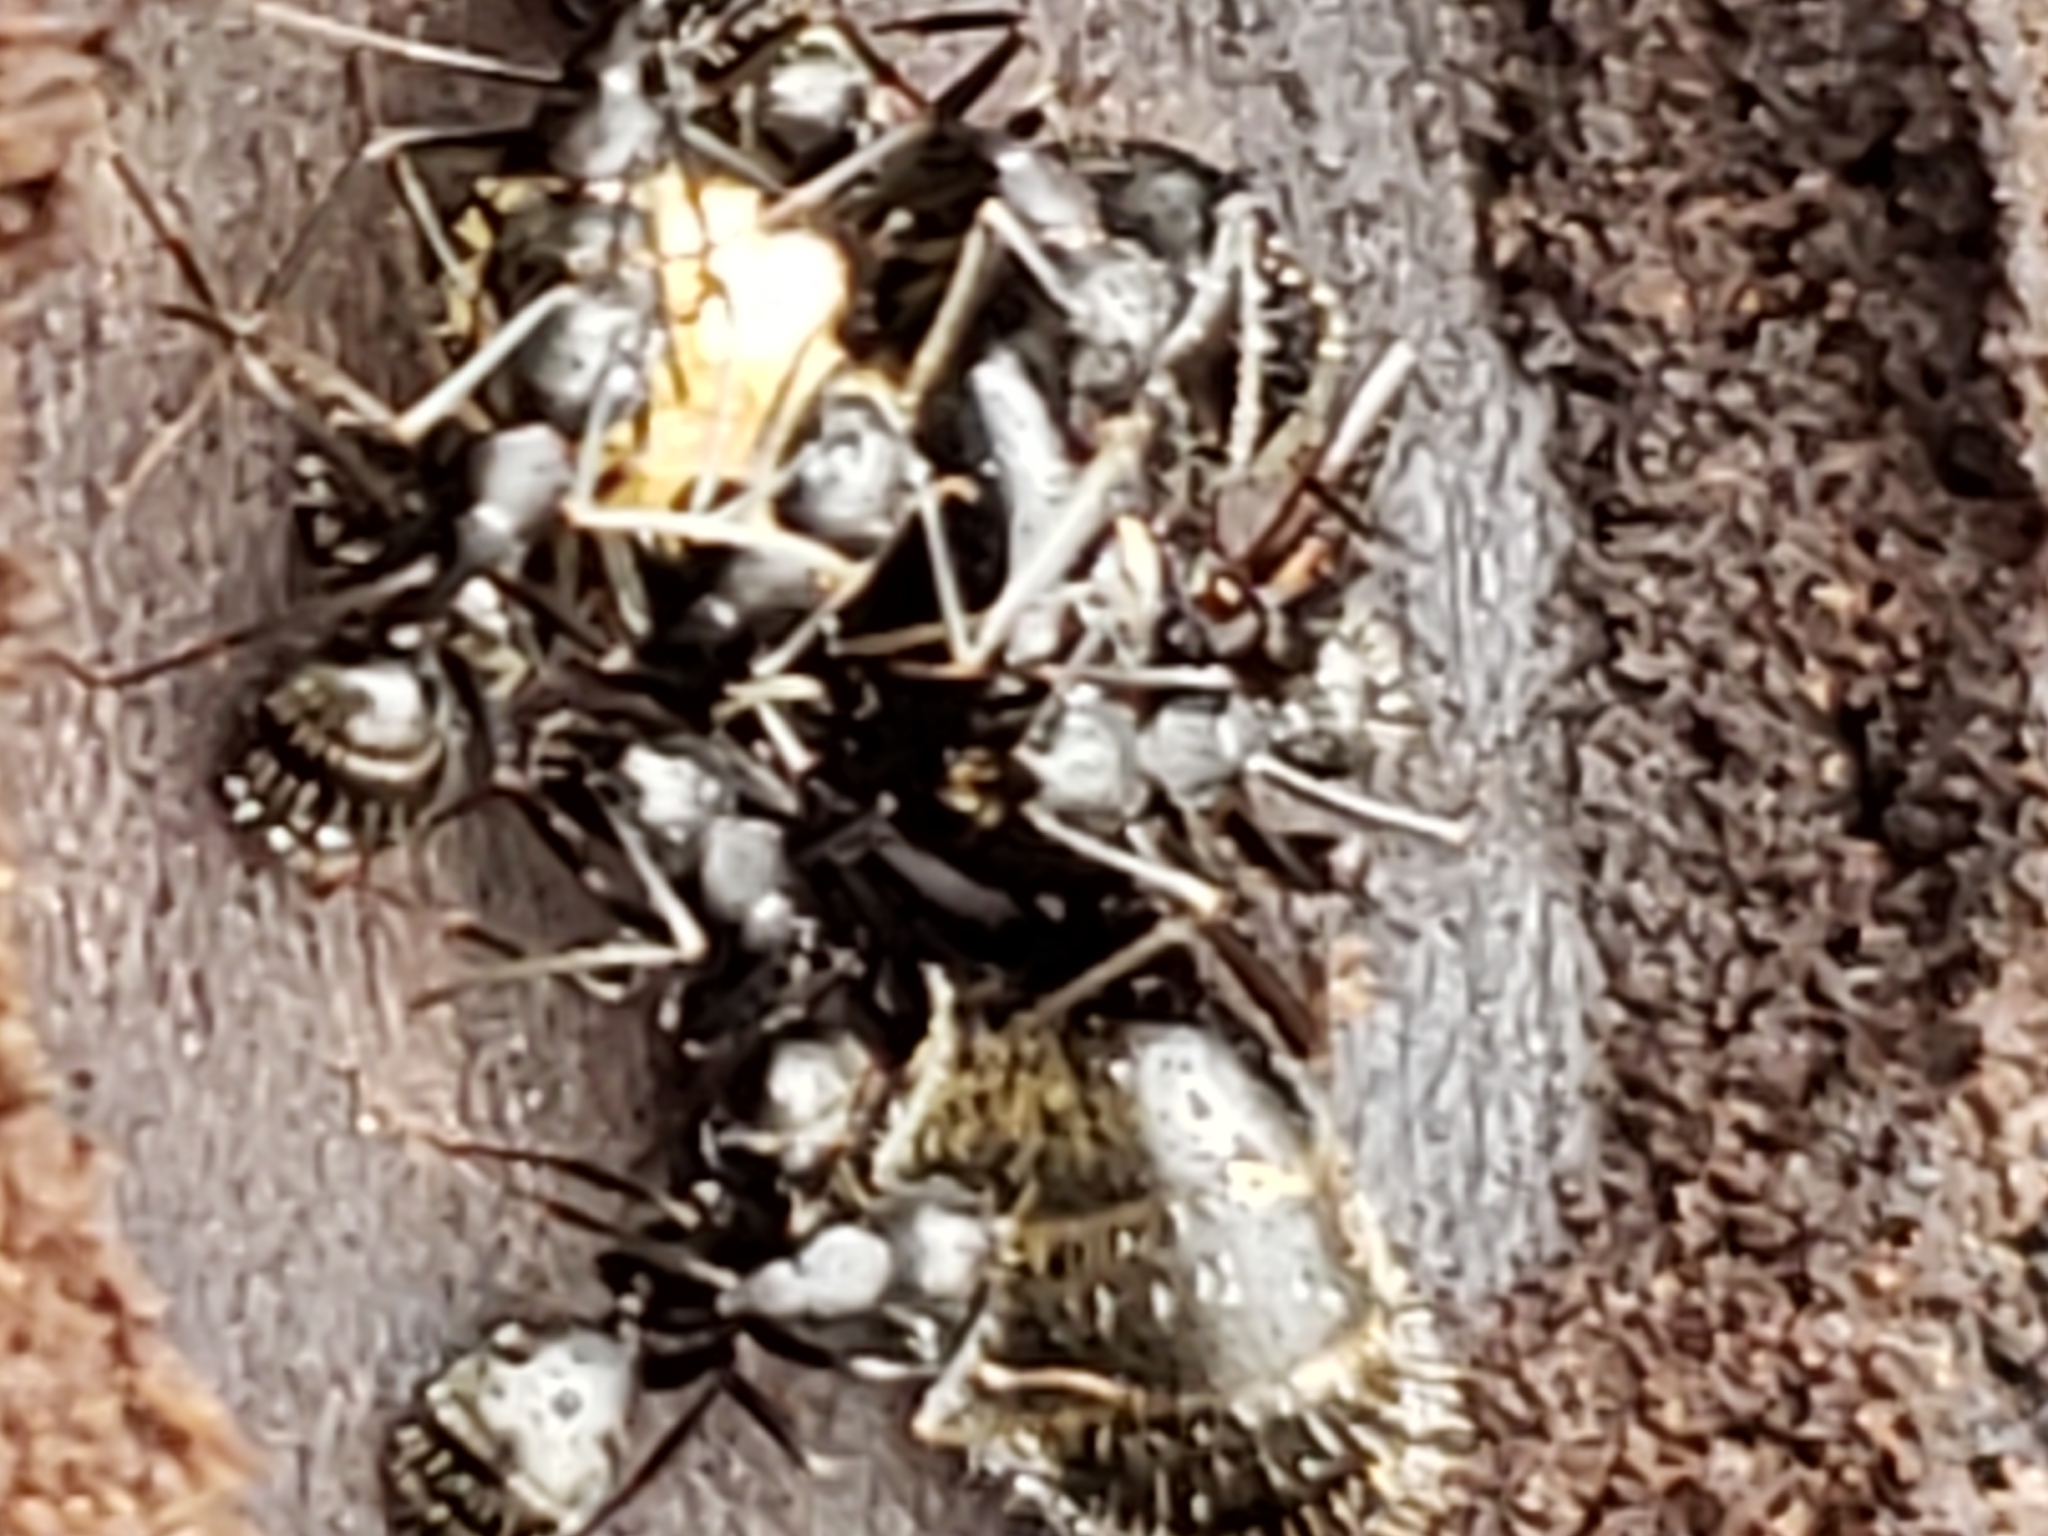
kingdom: Animalia
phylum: Arthropoda
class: Insecta
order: Hymenoptera
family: Formicidae
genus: Camponotus
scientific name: Camponotus pennsylvanicus
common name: Black carpenter ant
